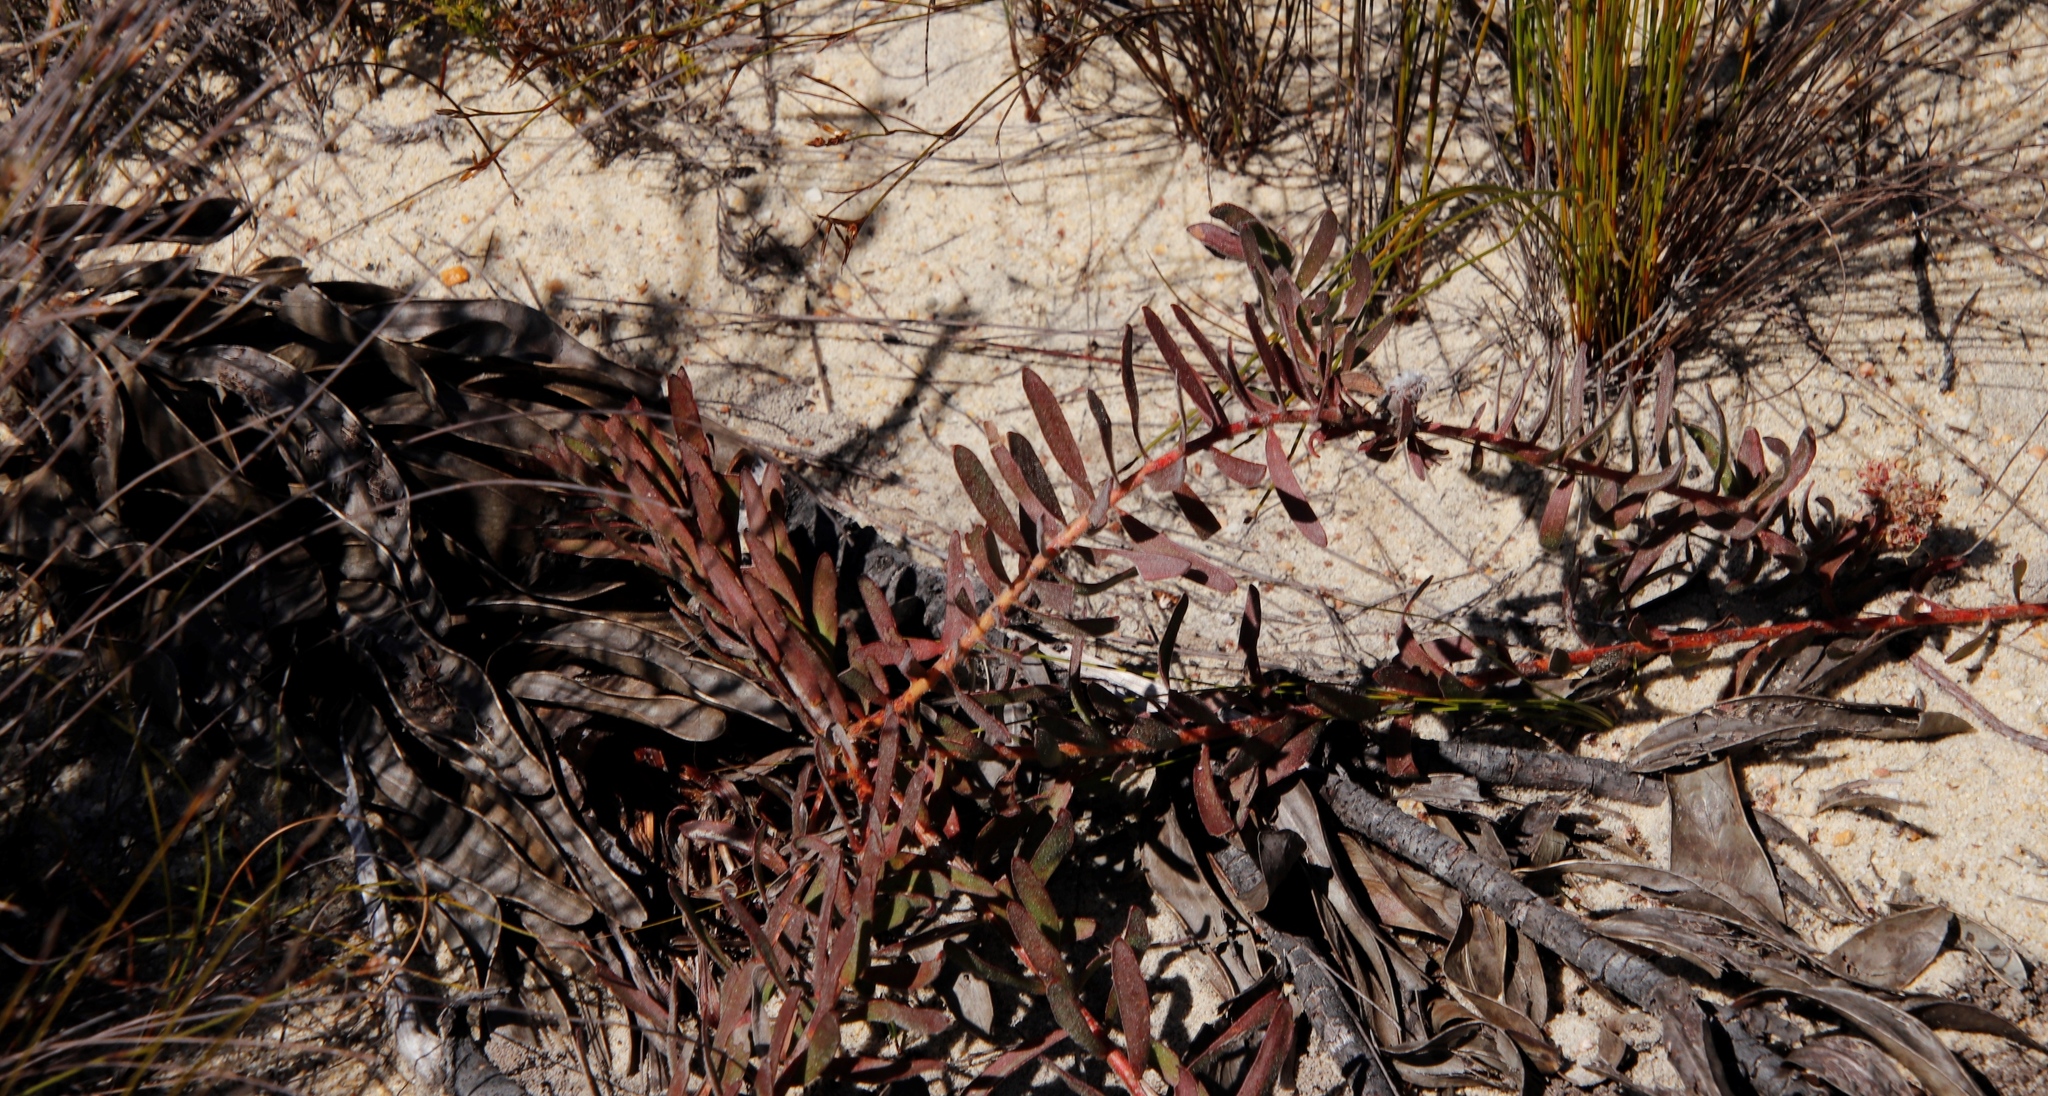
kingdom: Plantae
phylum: Tracheophyta
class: Magnoliopsida
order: Proteales
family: Proteaceae
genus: Leucospermum
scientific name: Leucospermum pedunculatum
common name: White-trailing pincushion
